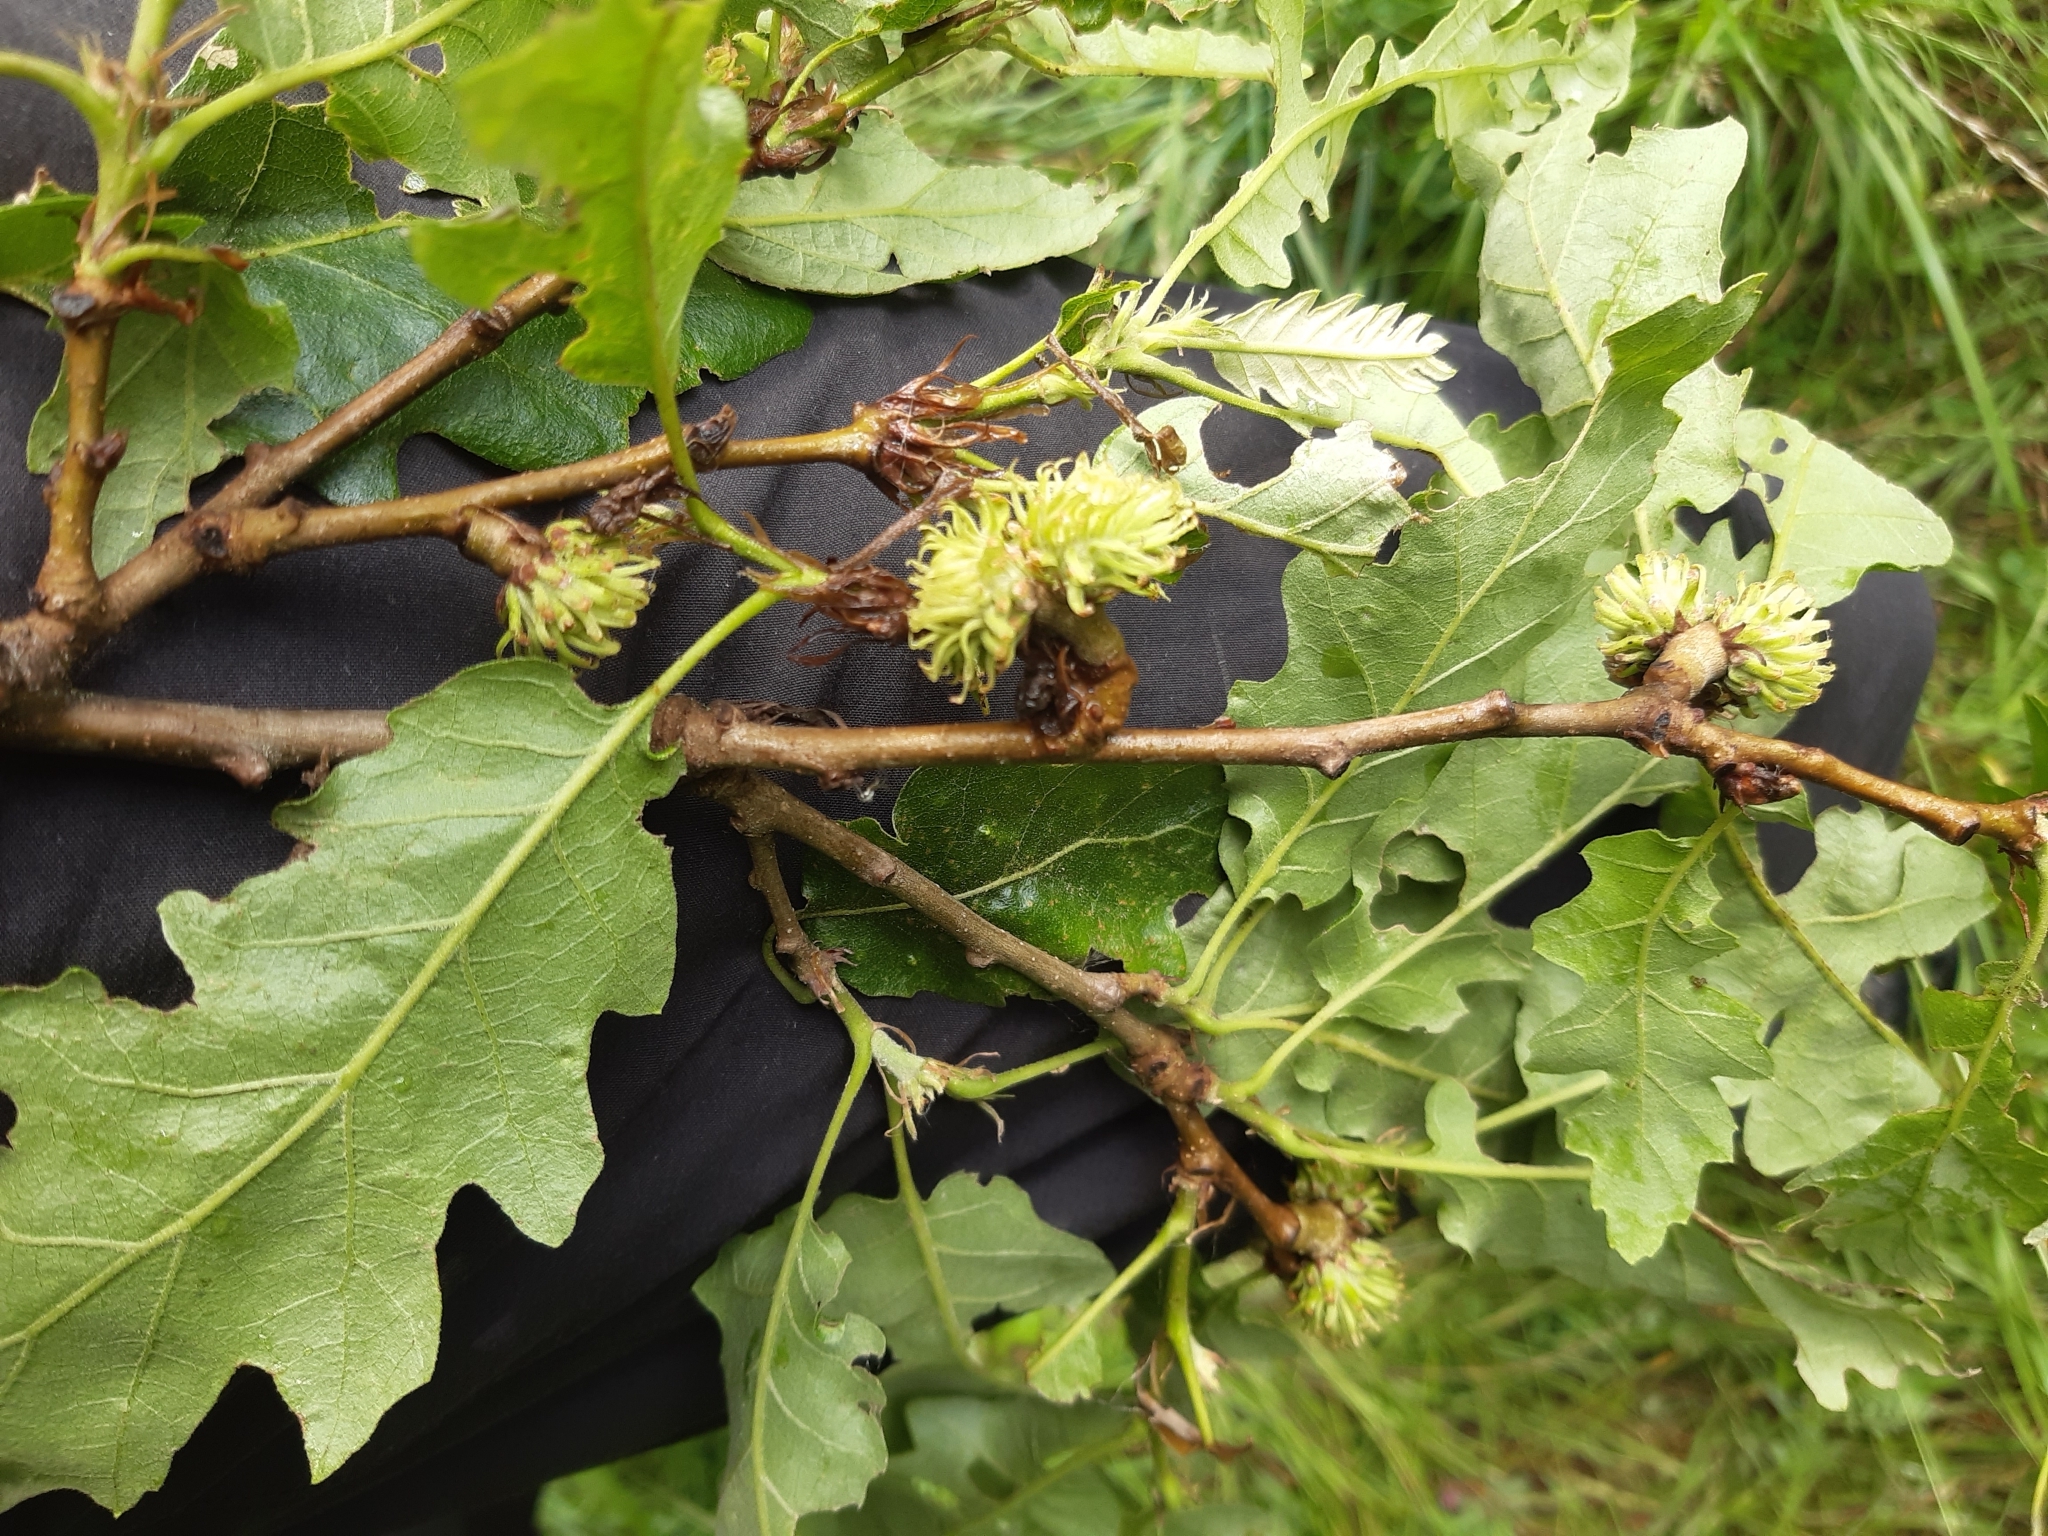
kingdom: Plantae
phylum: Tracheophyta
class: Magnoliopsida
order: Fagales
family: Fagaceae
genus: Quercus
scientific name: Quercus cerris
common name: Turkey oak
